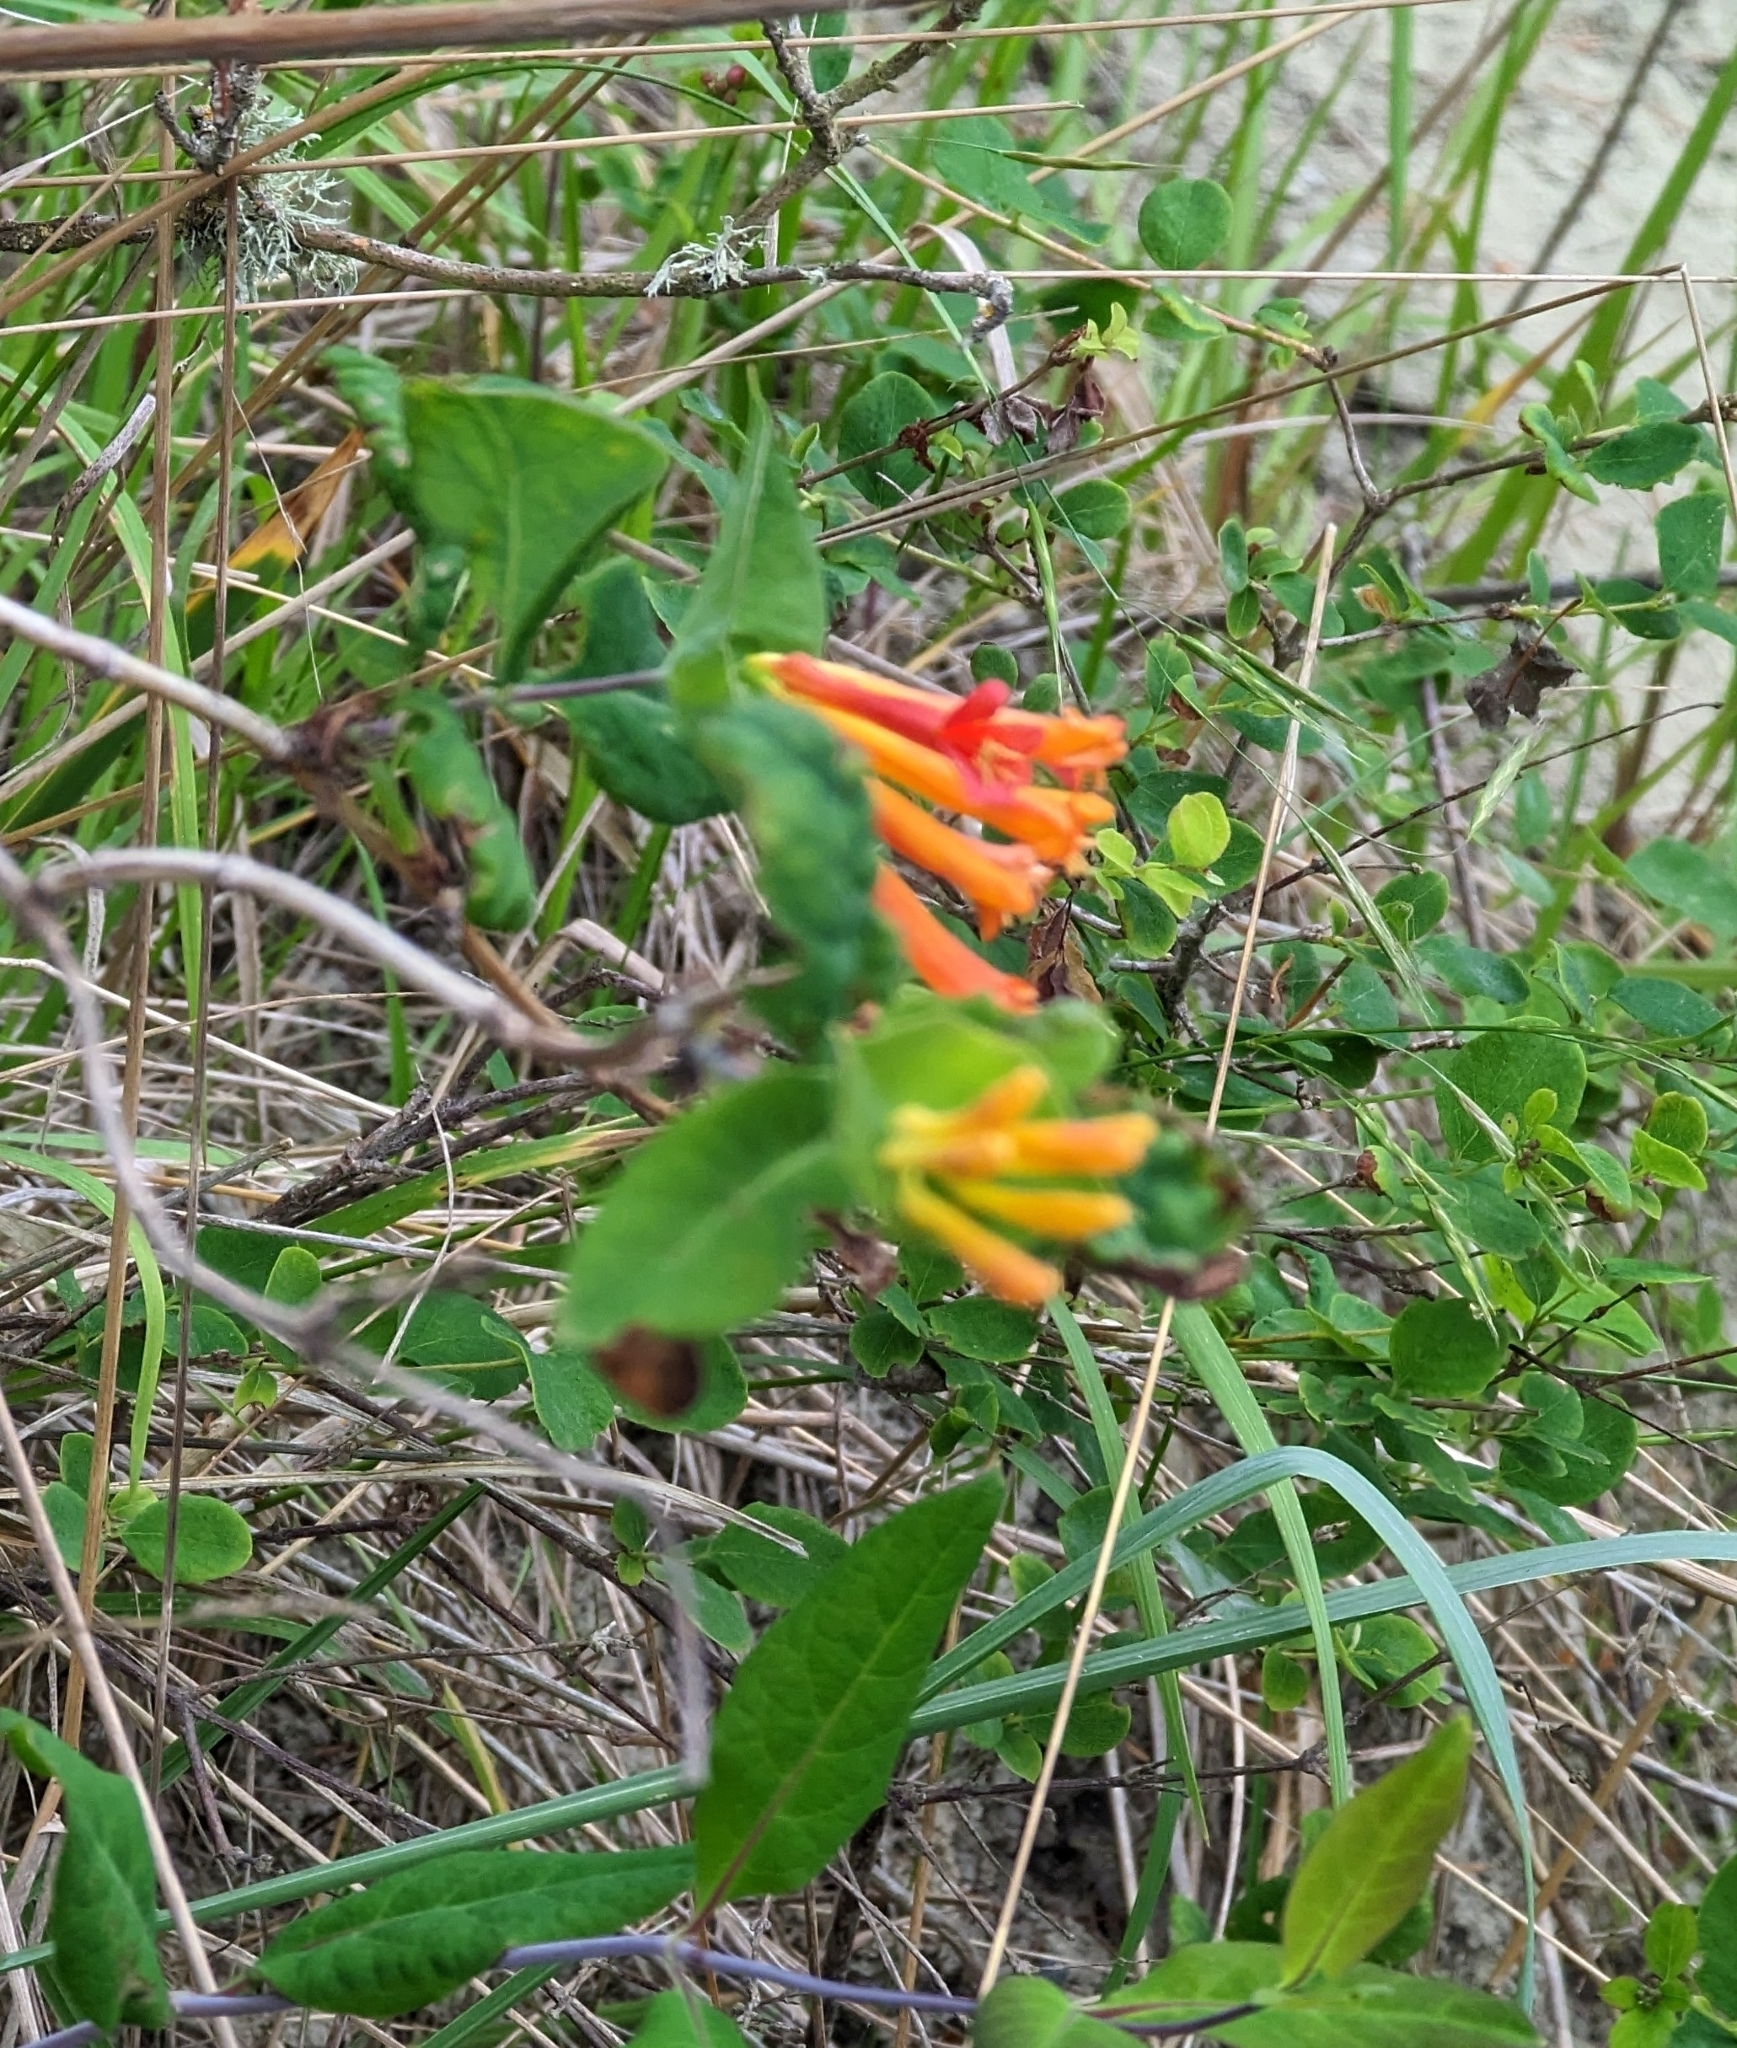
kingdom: Plantae
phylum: Tracheophyta
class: Magnoliopsida
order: Dipsacales
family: Caprifoliaceae
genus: Lonicera
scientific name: Lonicera ciliosa
